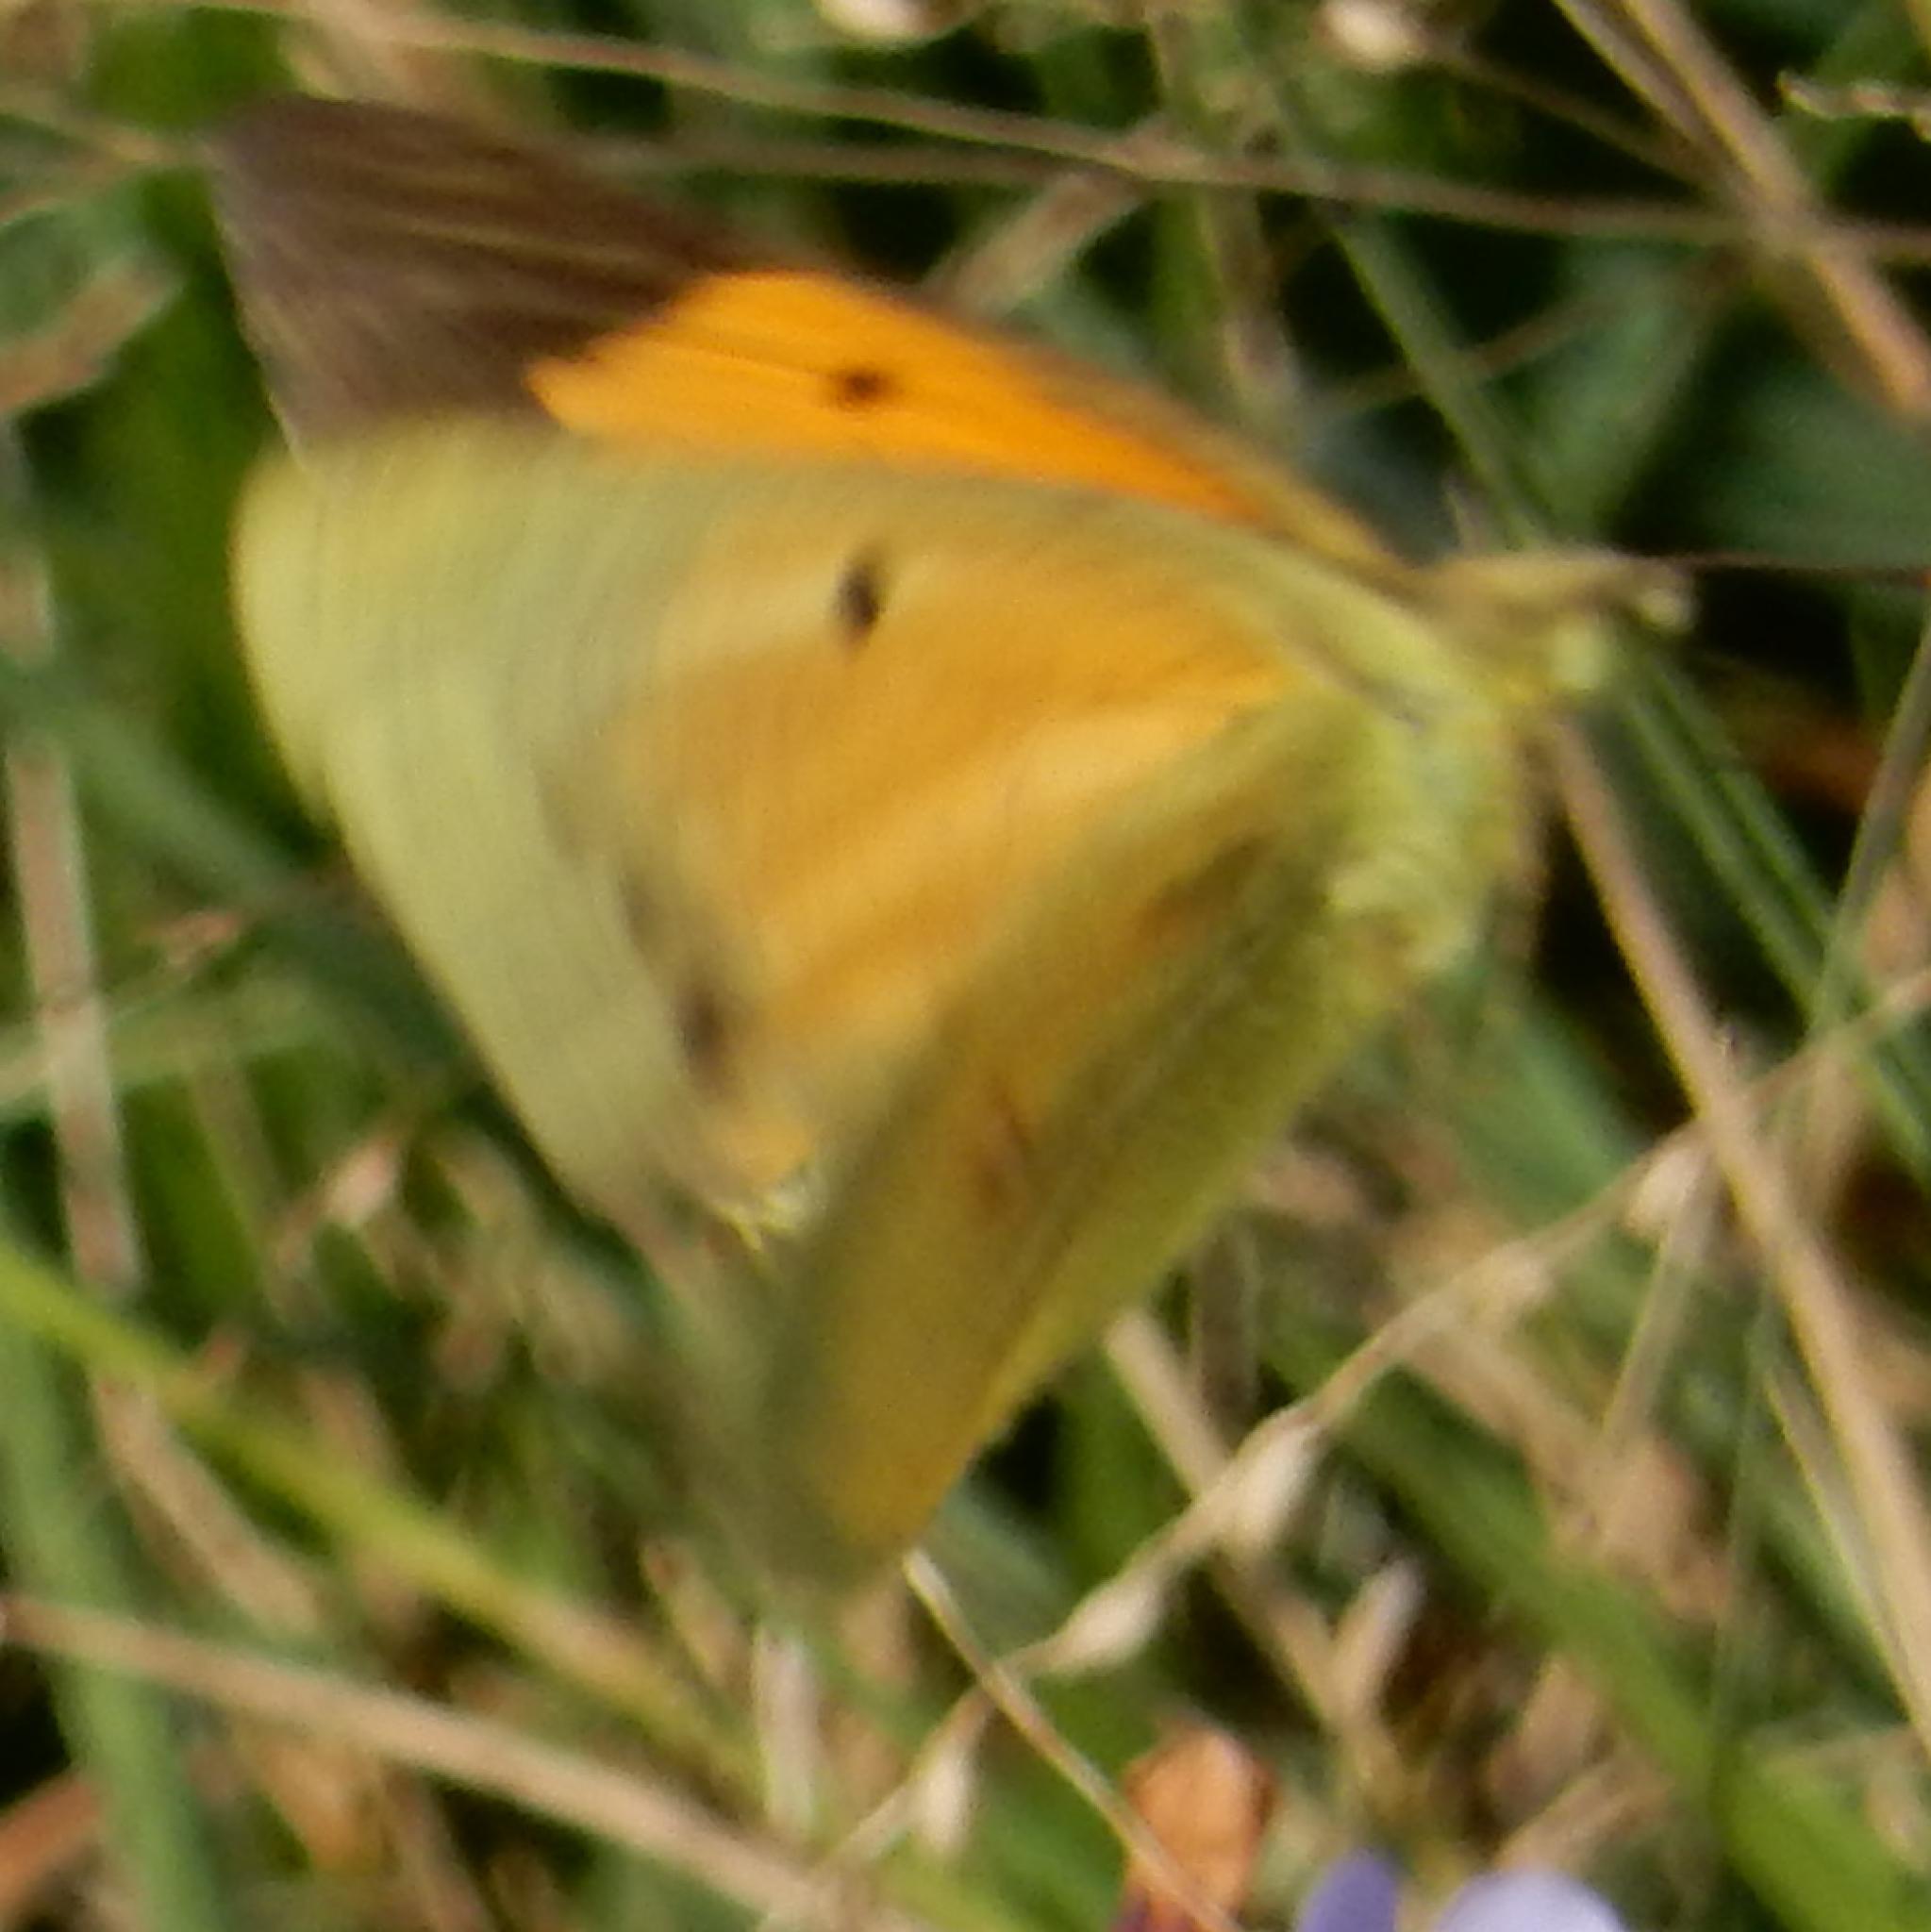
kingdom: Animalia
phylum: Arthropoda
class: Insecta
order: Lepidoptera
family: Pieridae
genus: Colias
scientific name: Colias electo
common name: African clouded yellow
